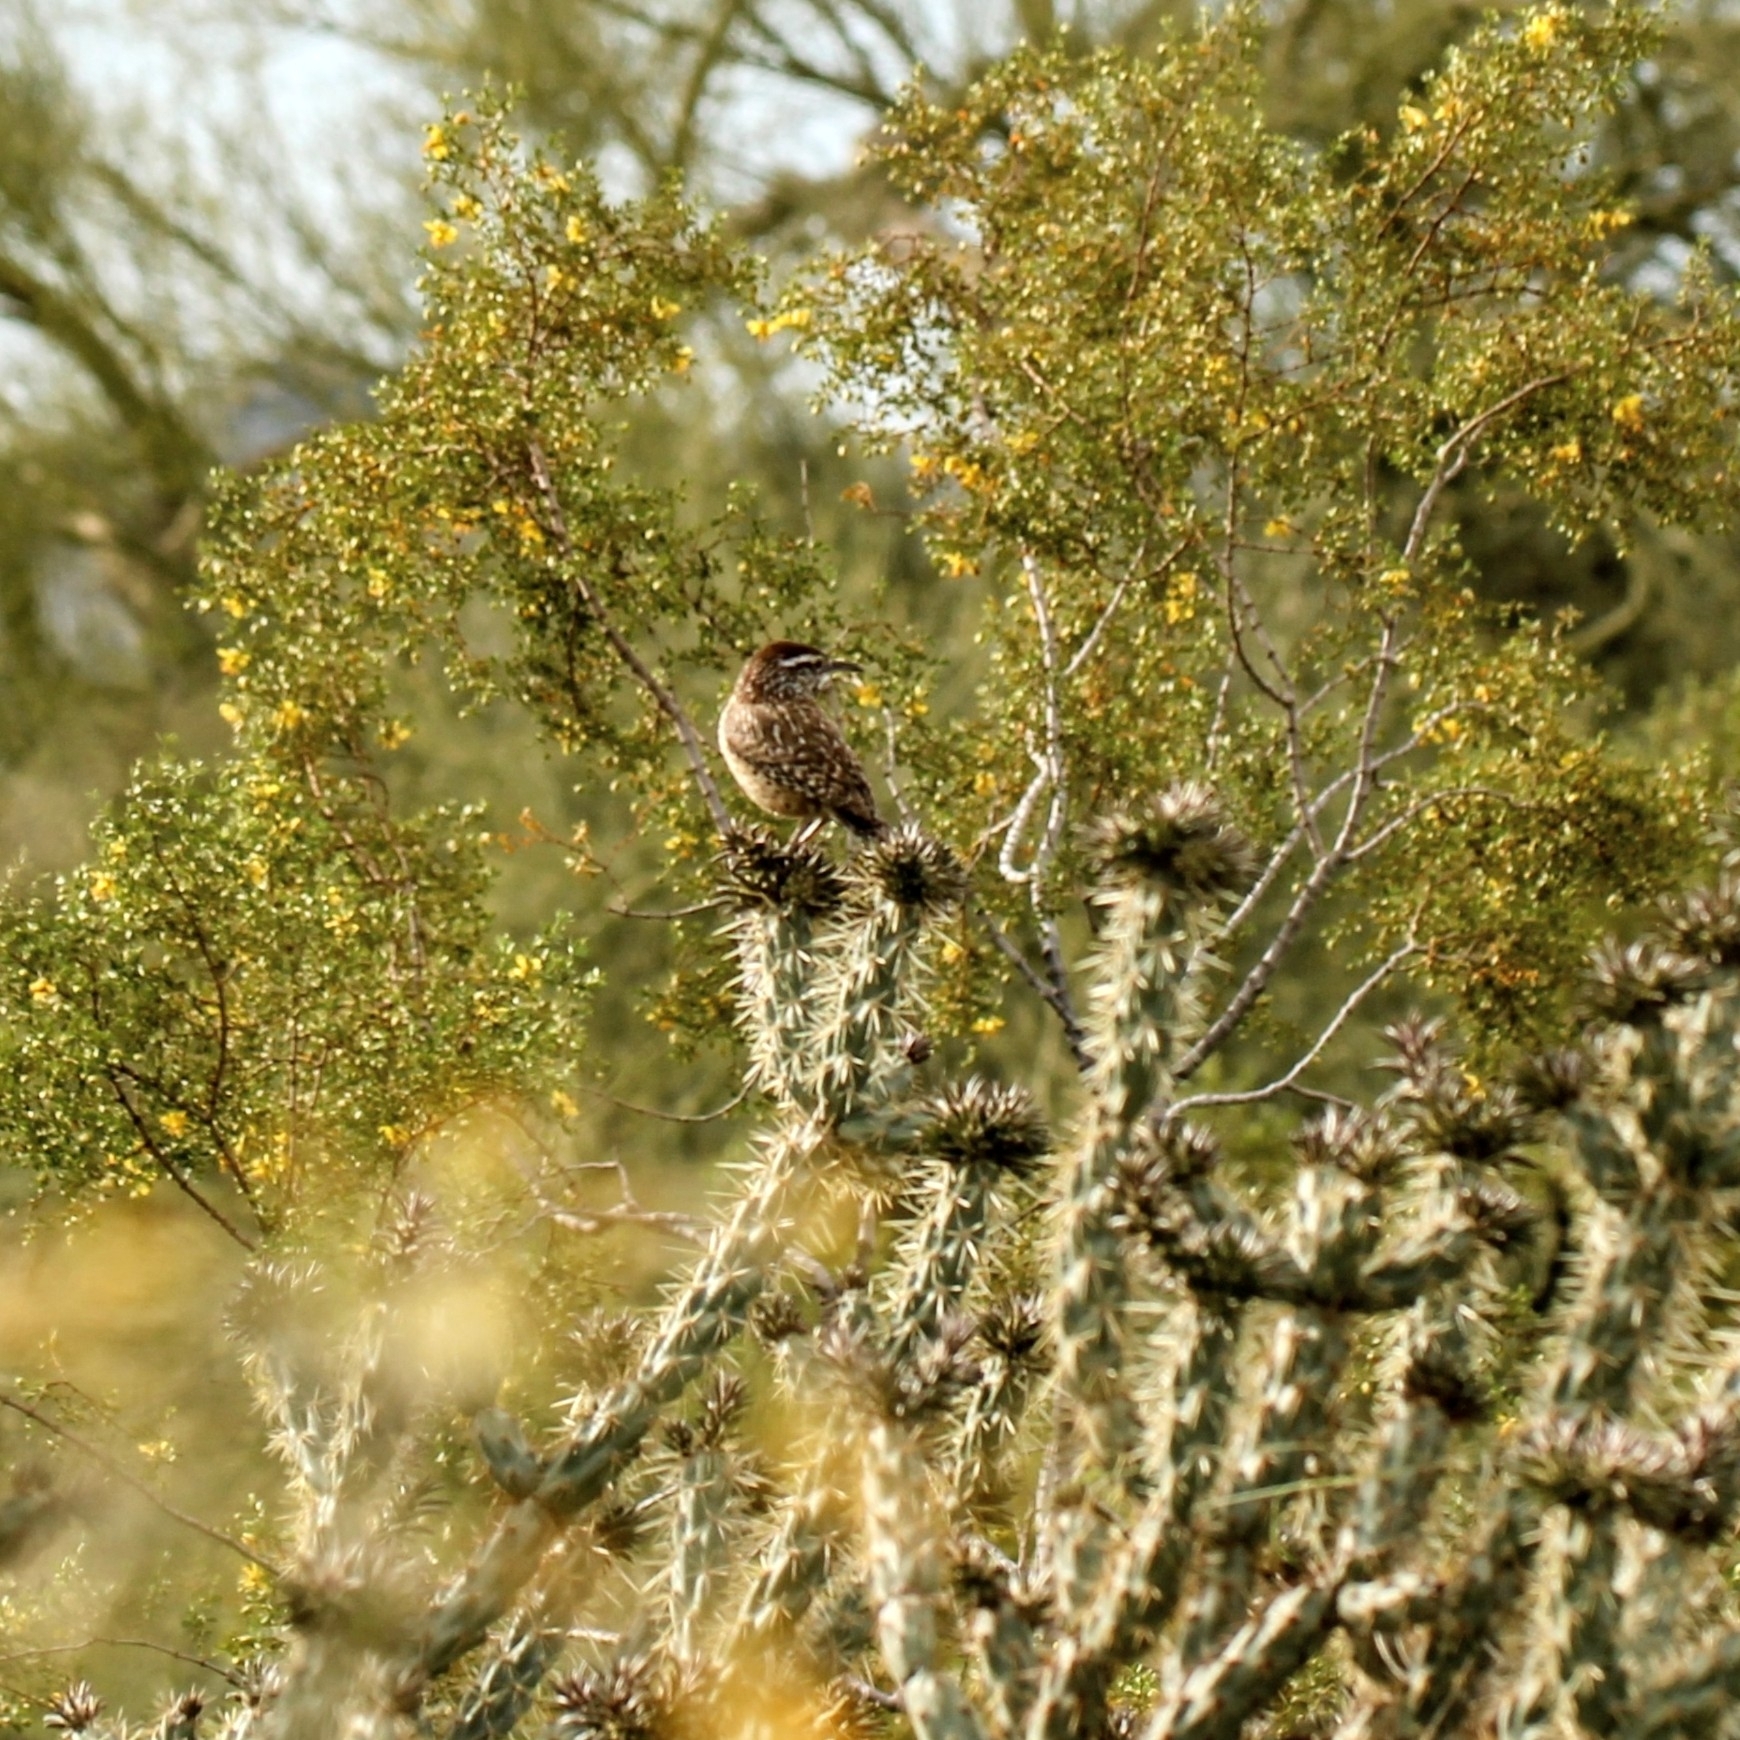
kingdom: Animalia
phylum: Chordata
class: Aves
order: Passeriformes
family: Troglodytidae
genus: Campylorhynchus
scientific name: Campylorhynchus brunneicapillus
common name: Cactus wren
